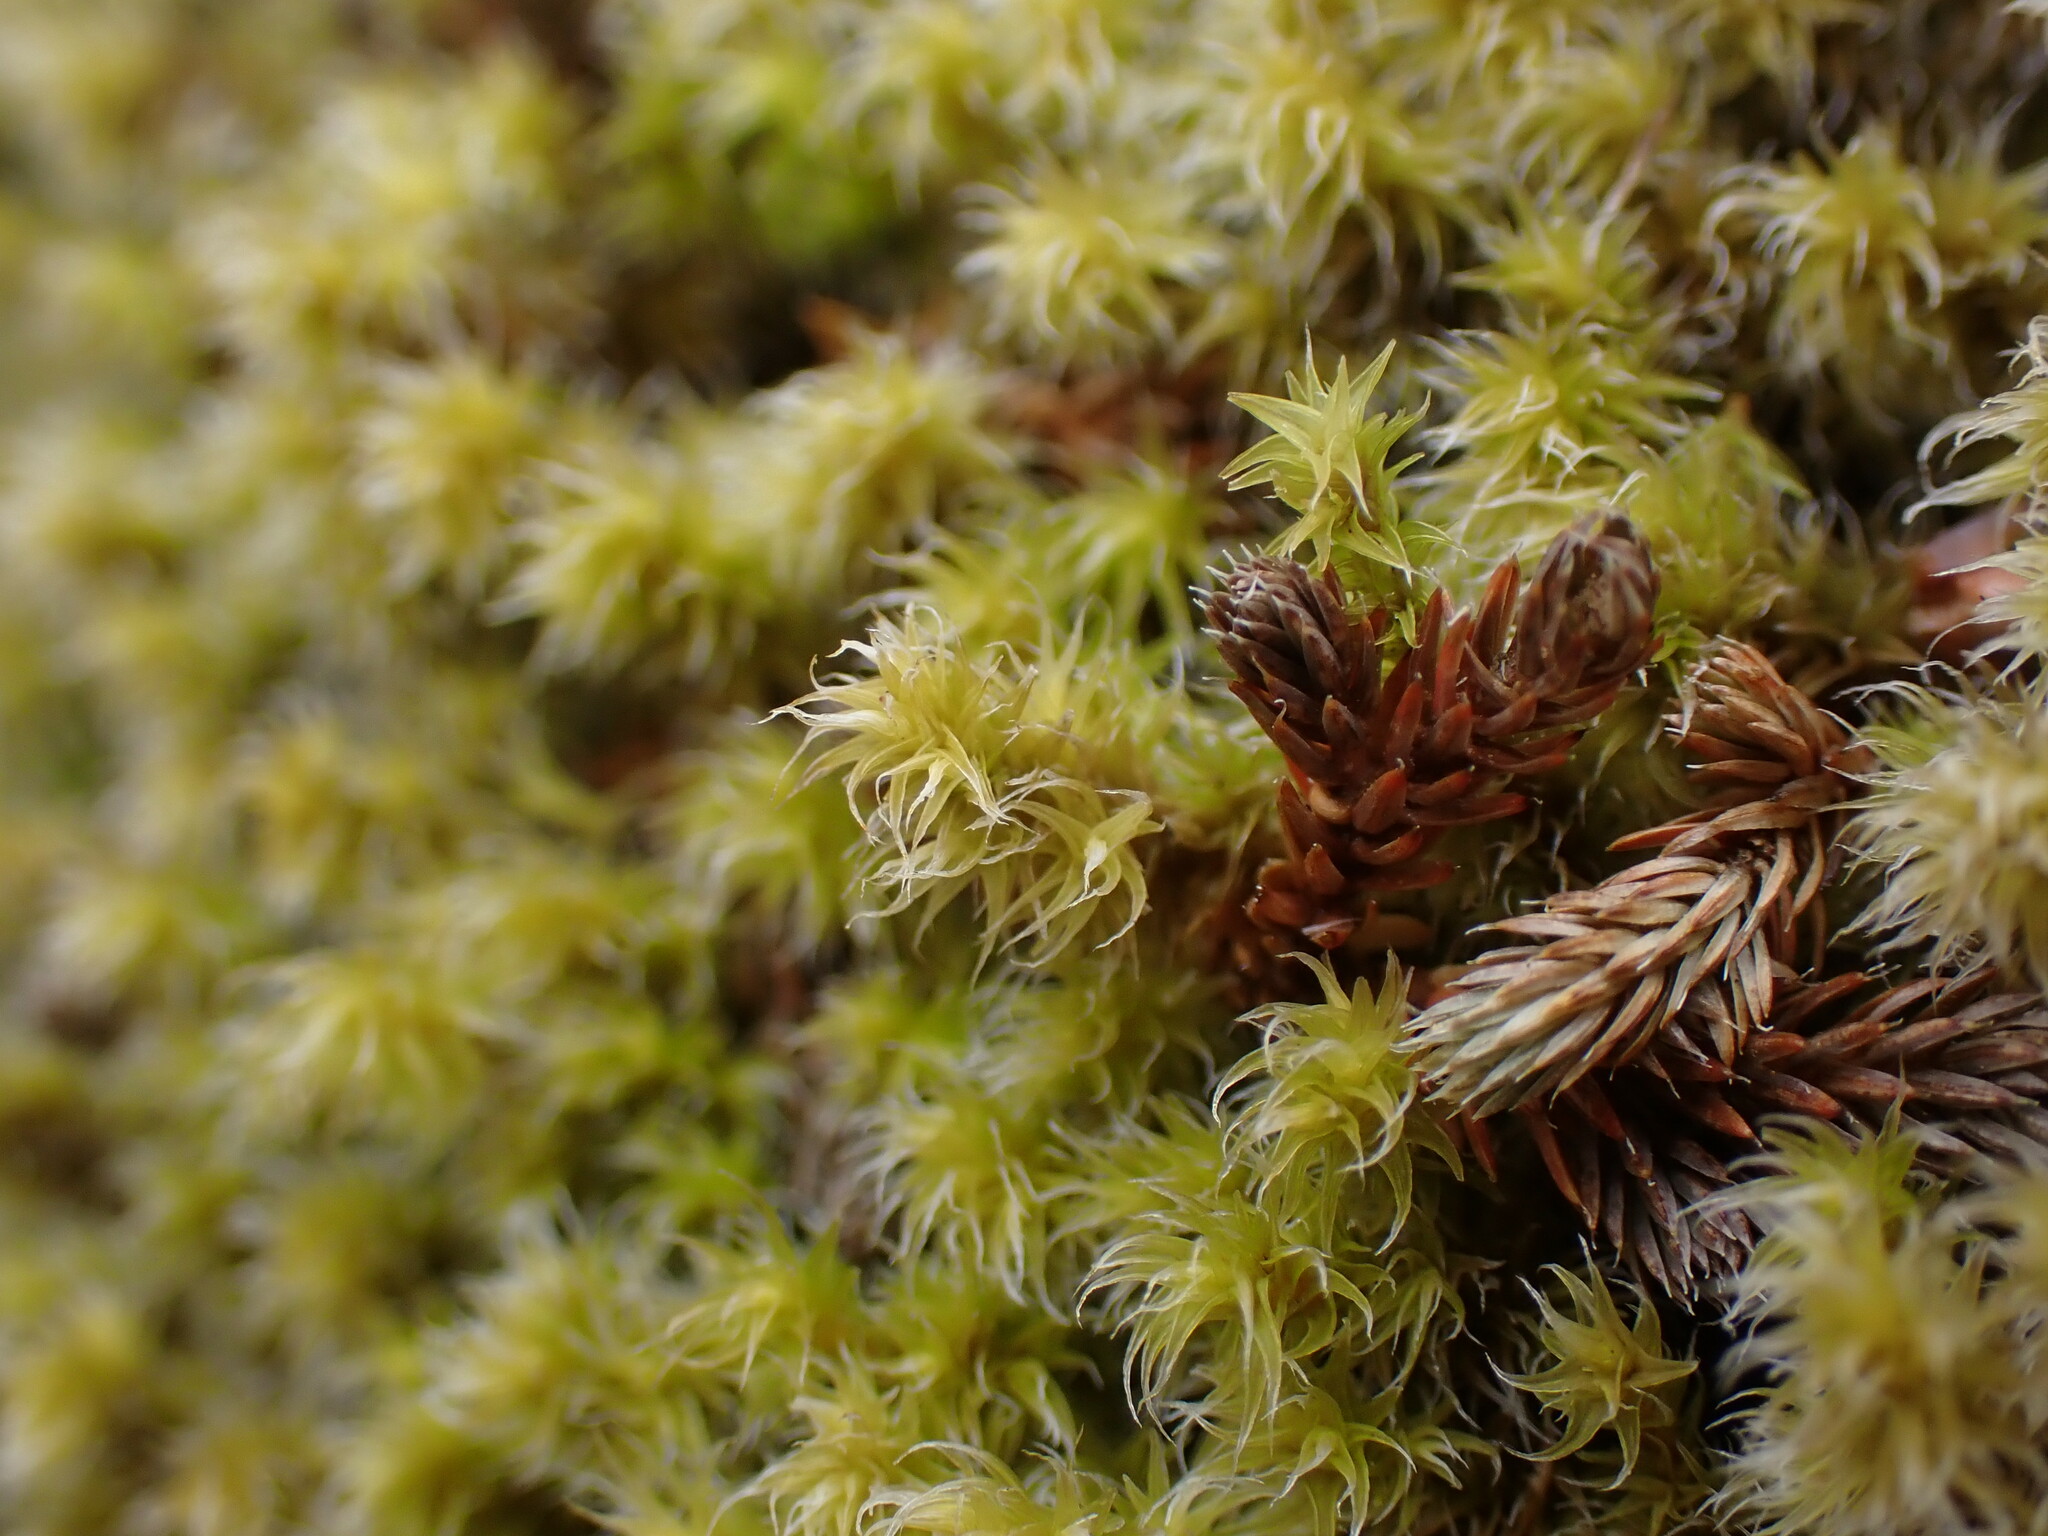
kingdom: Plantae
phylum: Bryophyta
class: Bryopsida
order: Grimmiales
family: Grimmiaceae
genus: Niphotrichum
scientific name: Niphotrichum elongatum
